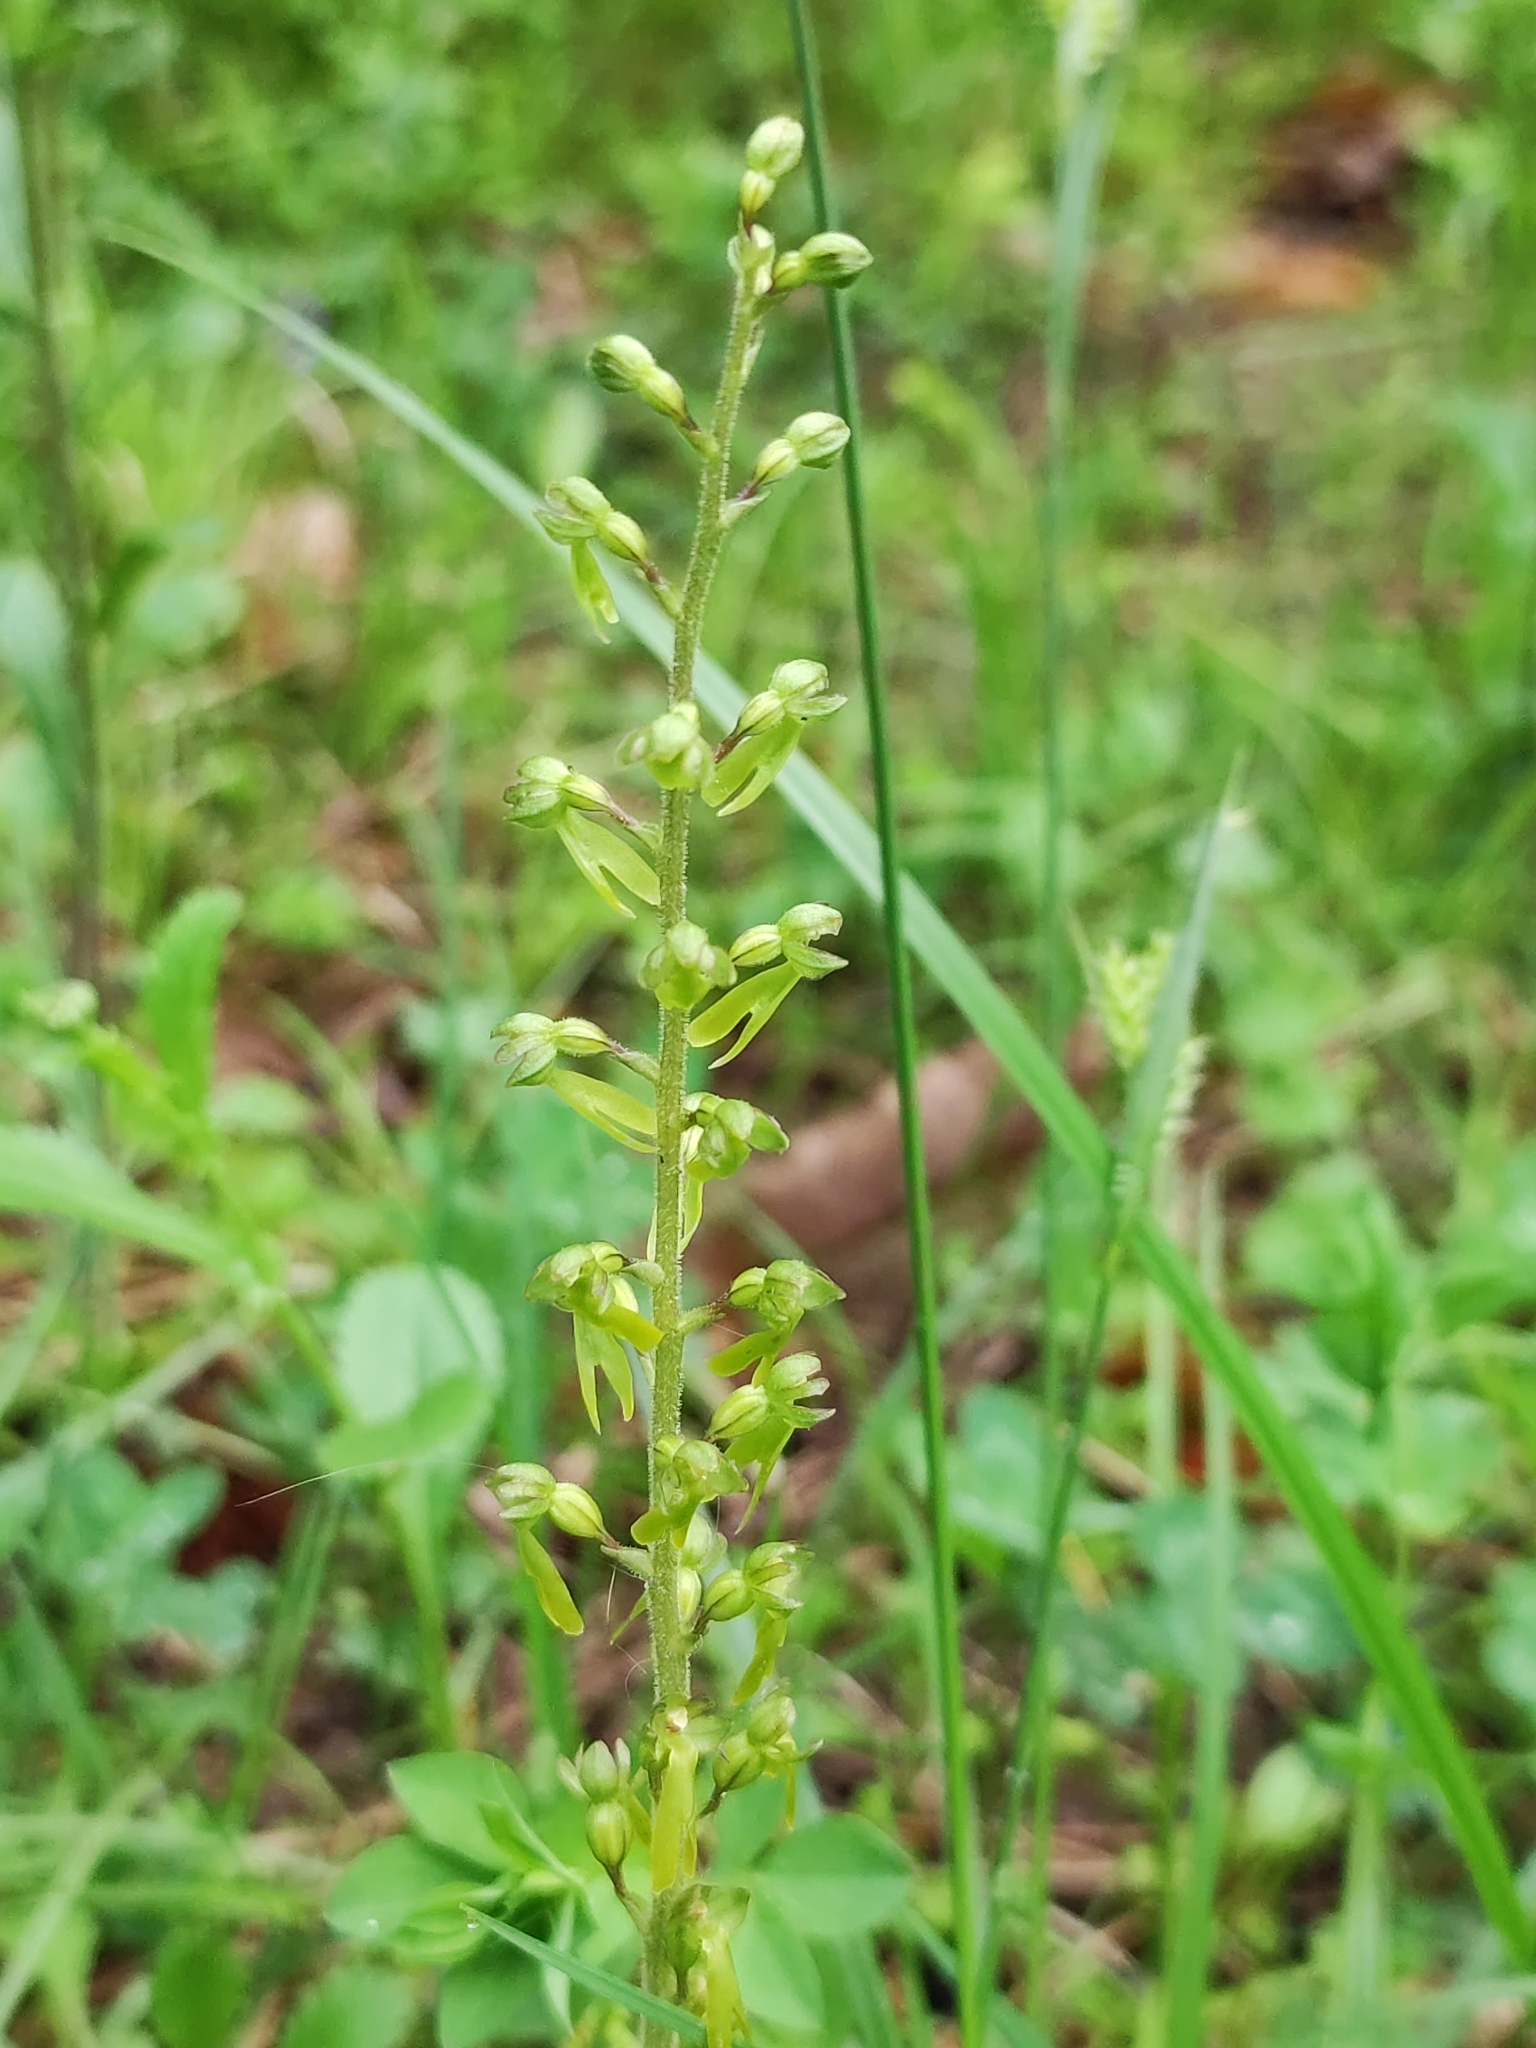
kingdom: Plantae
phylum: Tracheophyta
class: Liliopsida
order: Asparagales
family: Orchidaceae
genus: Neottia
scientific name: Neottia ovata
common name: Common twayblade
